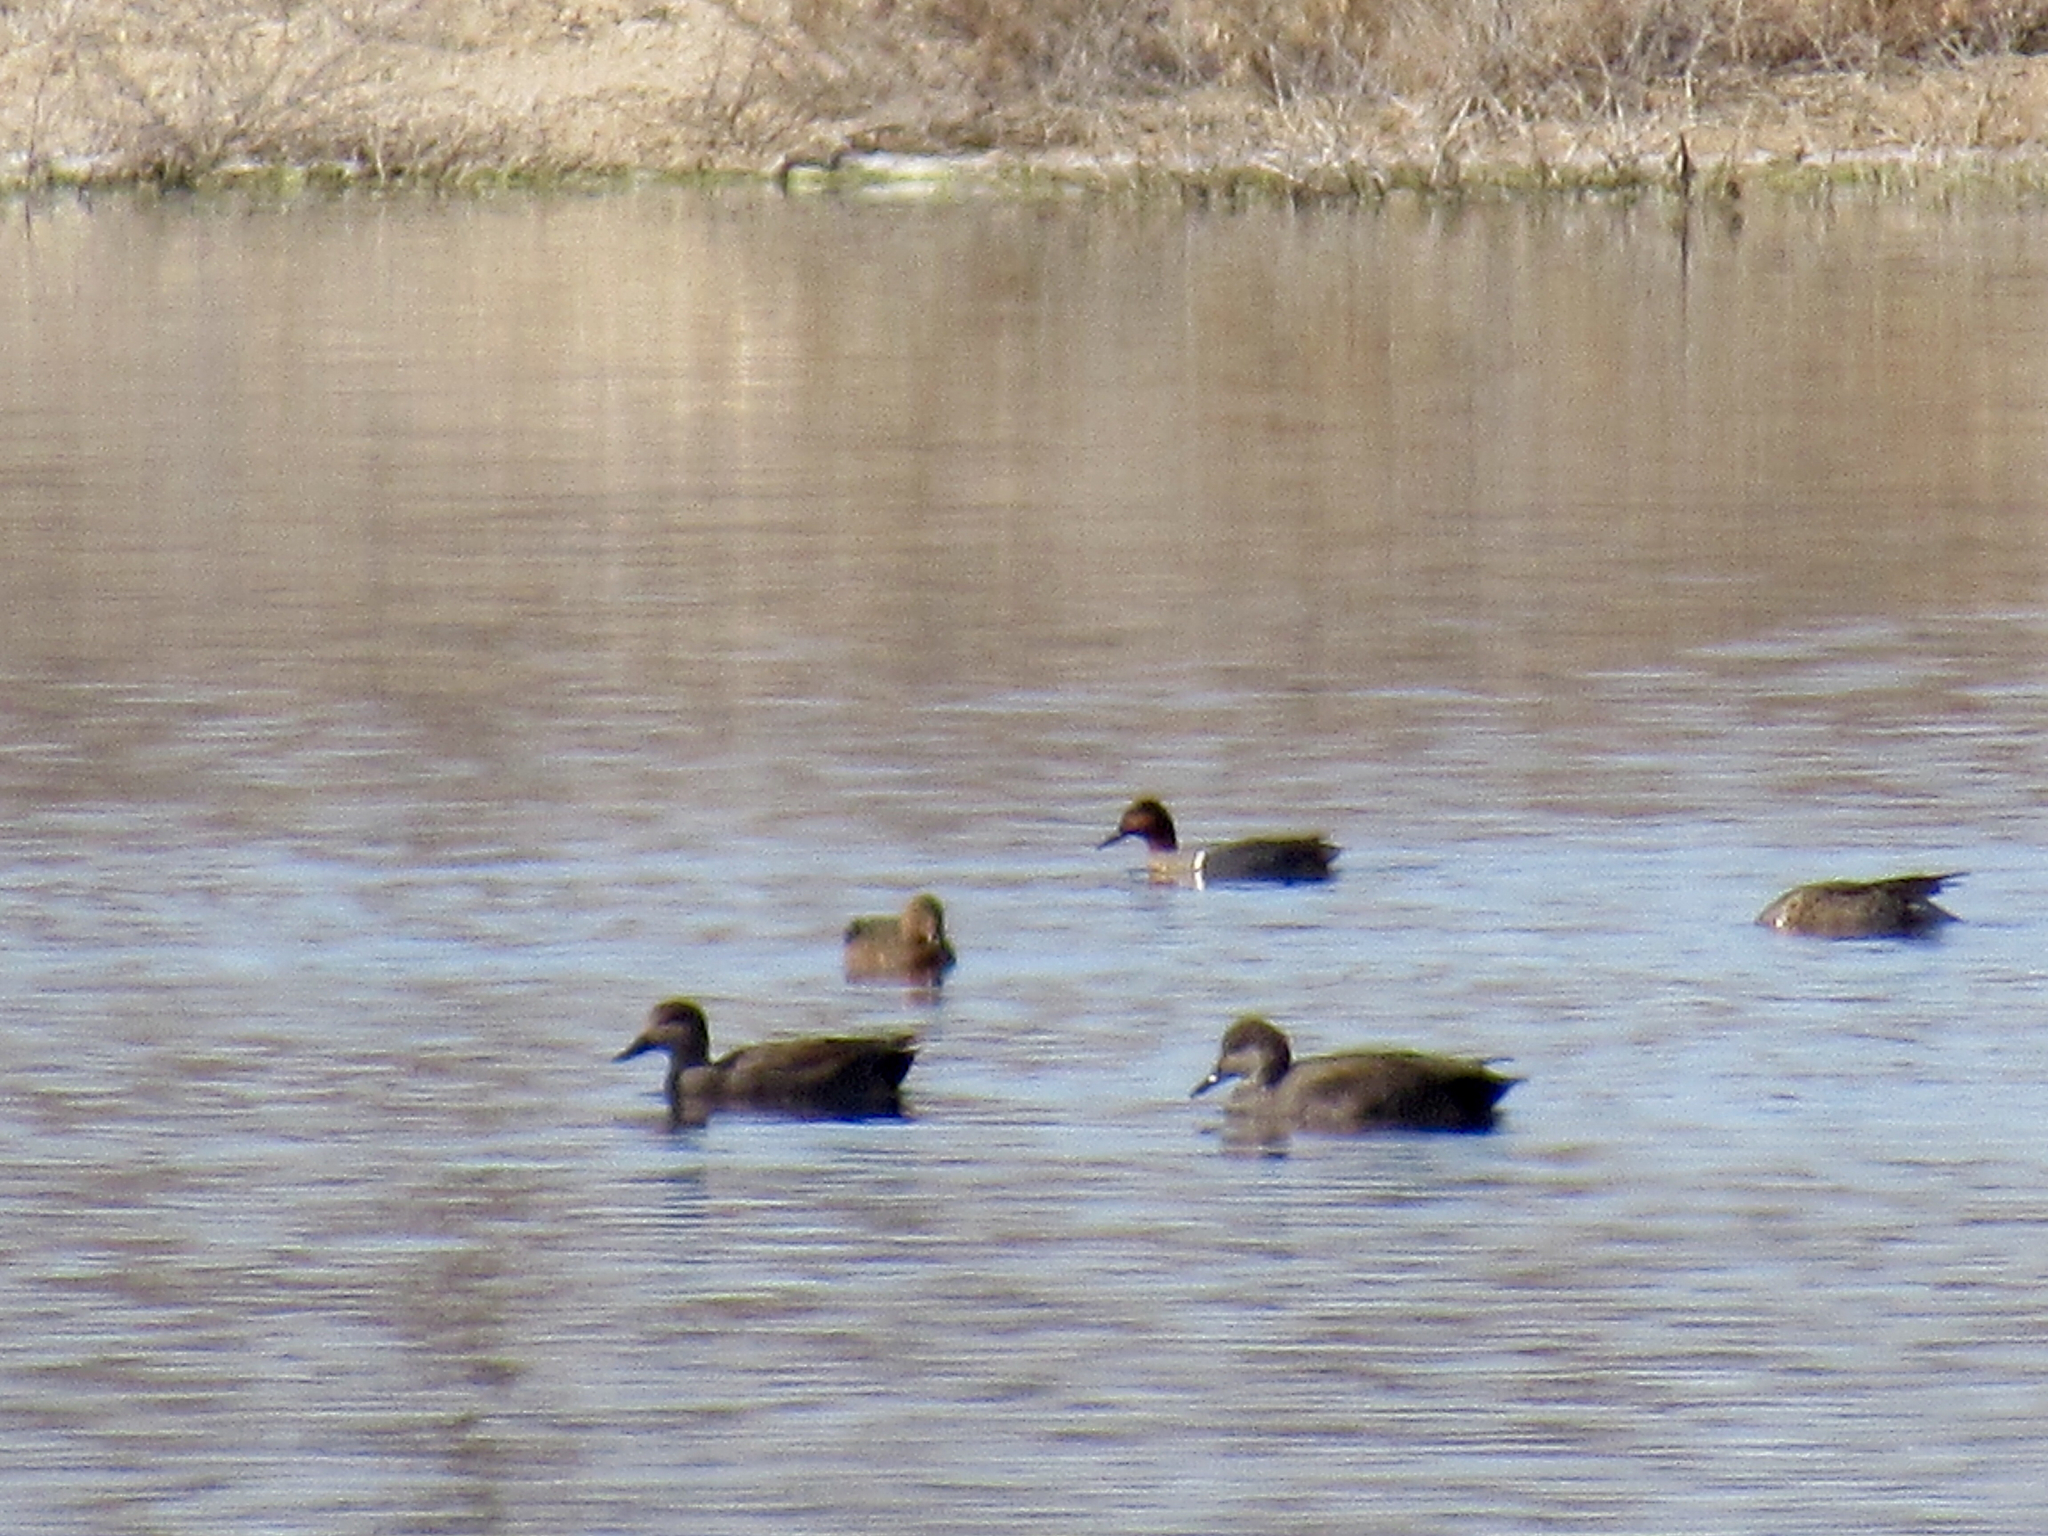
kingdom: Animalia
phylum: Chordata
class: Aves
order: Anseriformes
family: Anatidae
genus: Anas
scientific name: Anas crecca
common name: Eurasian teal
